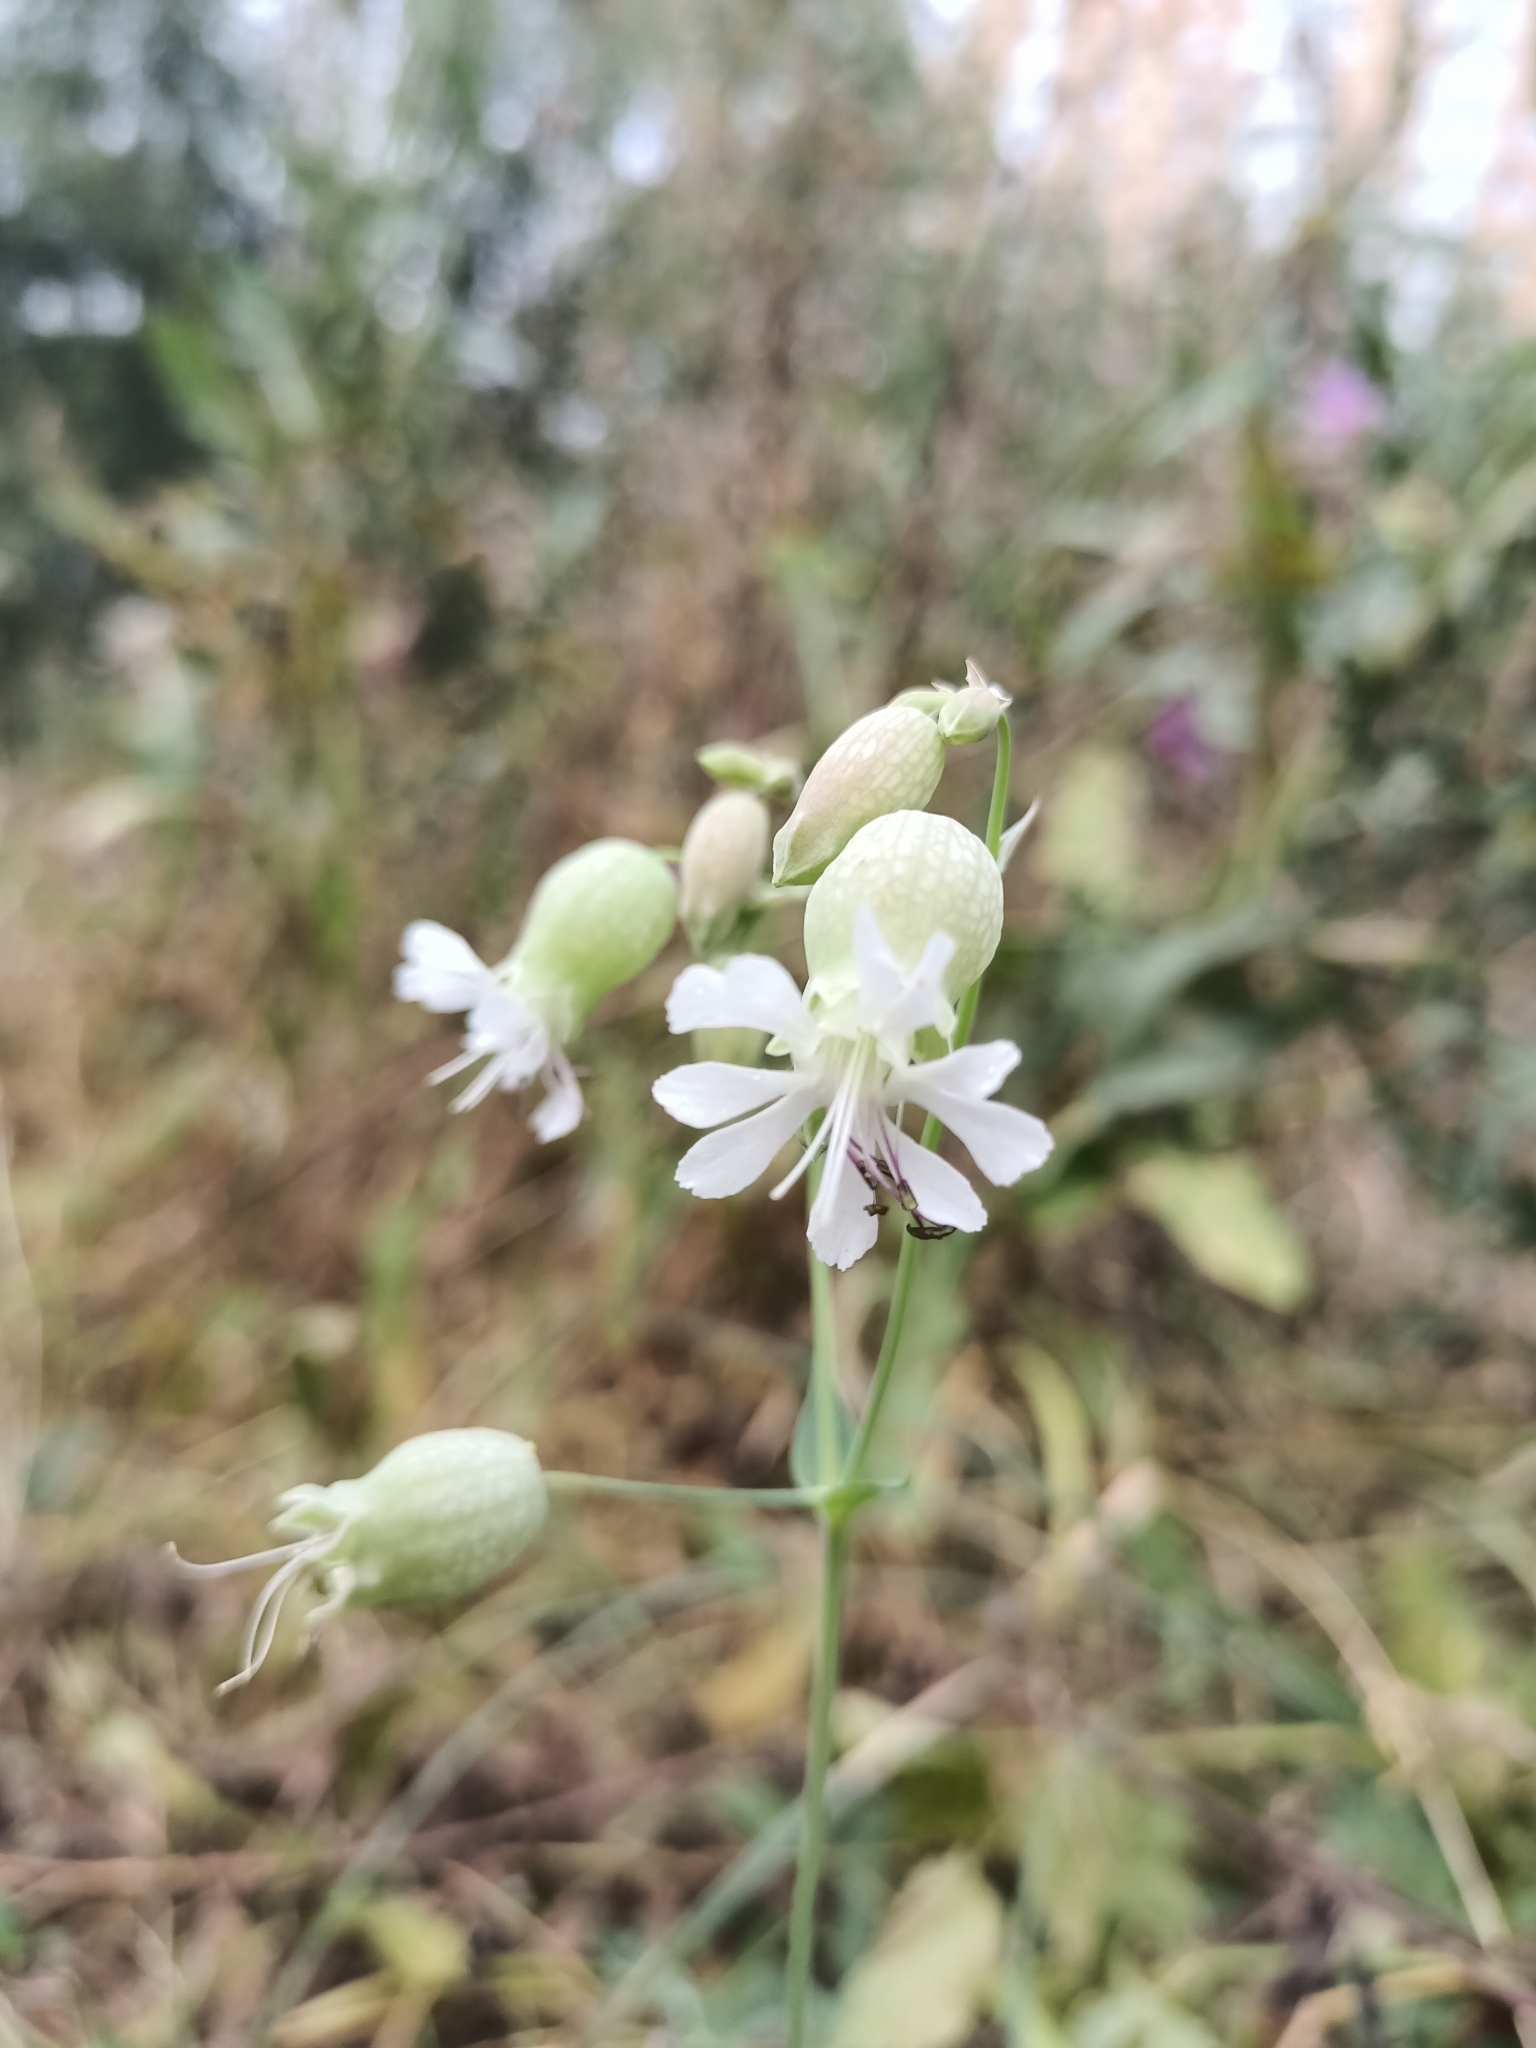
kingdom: Plantae
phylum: Tracheophyta
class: Magnoliopsida
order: Caryophyllales
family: Caryophyllaceae
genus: Silene
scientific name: Silene vulgaris
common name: Bladder campion
